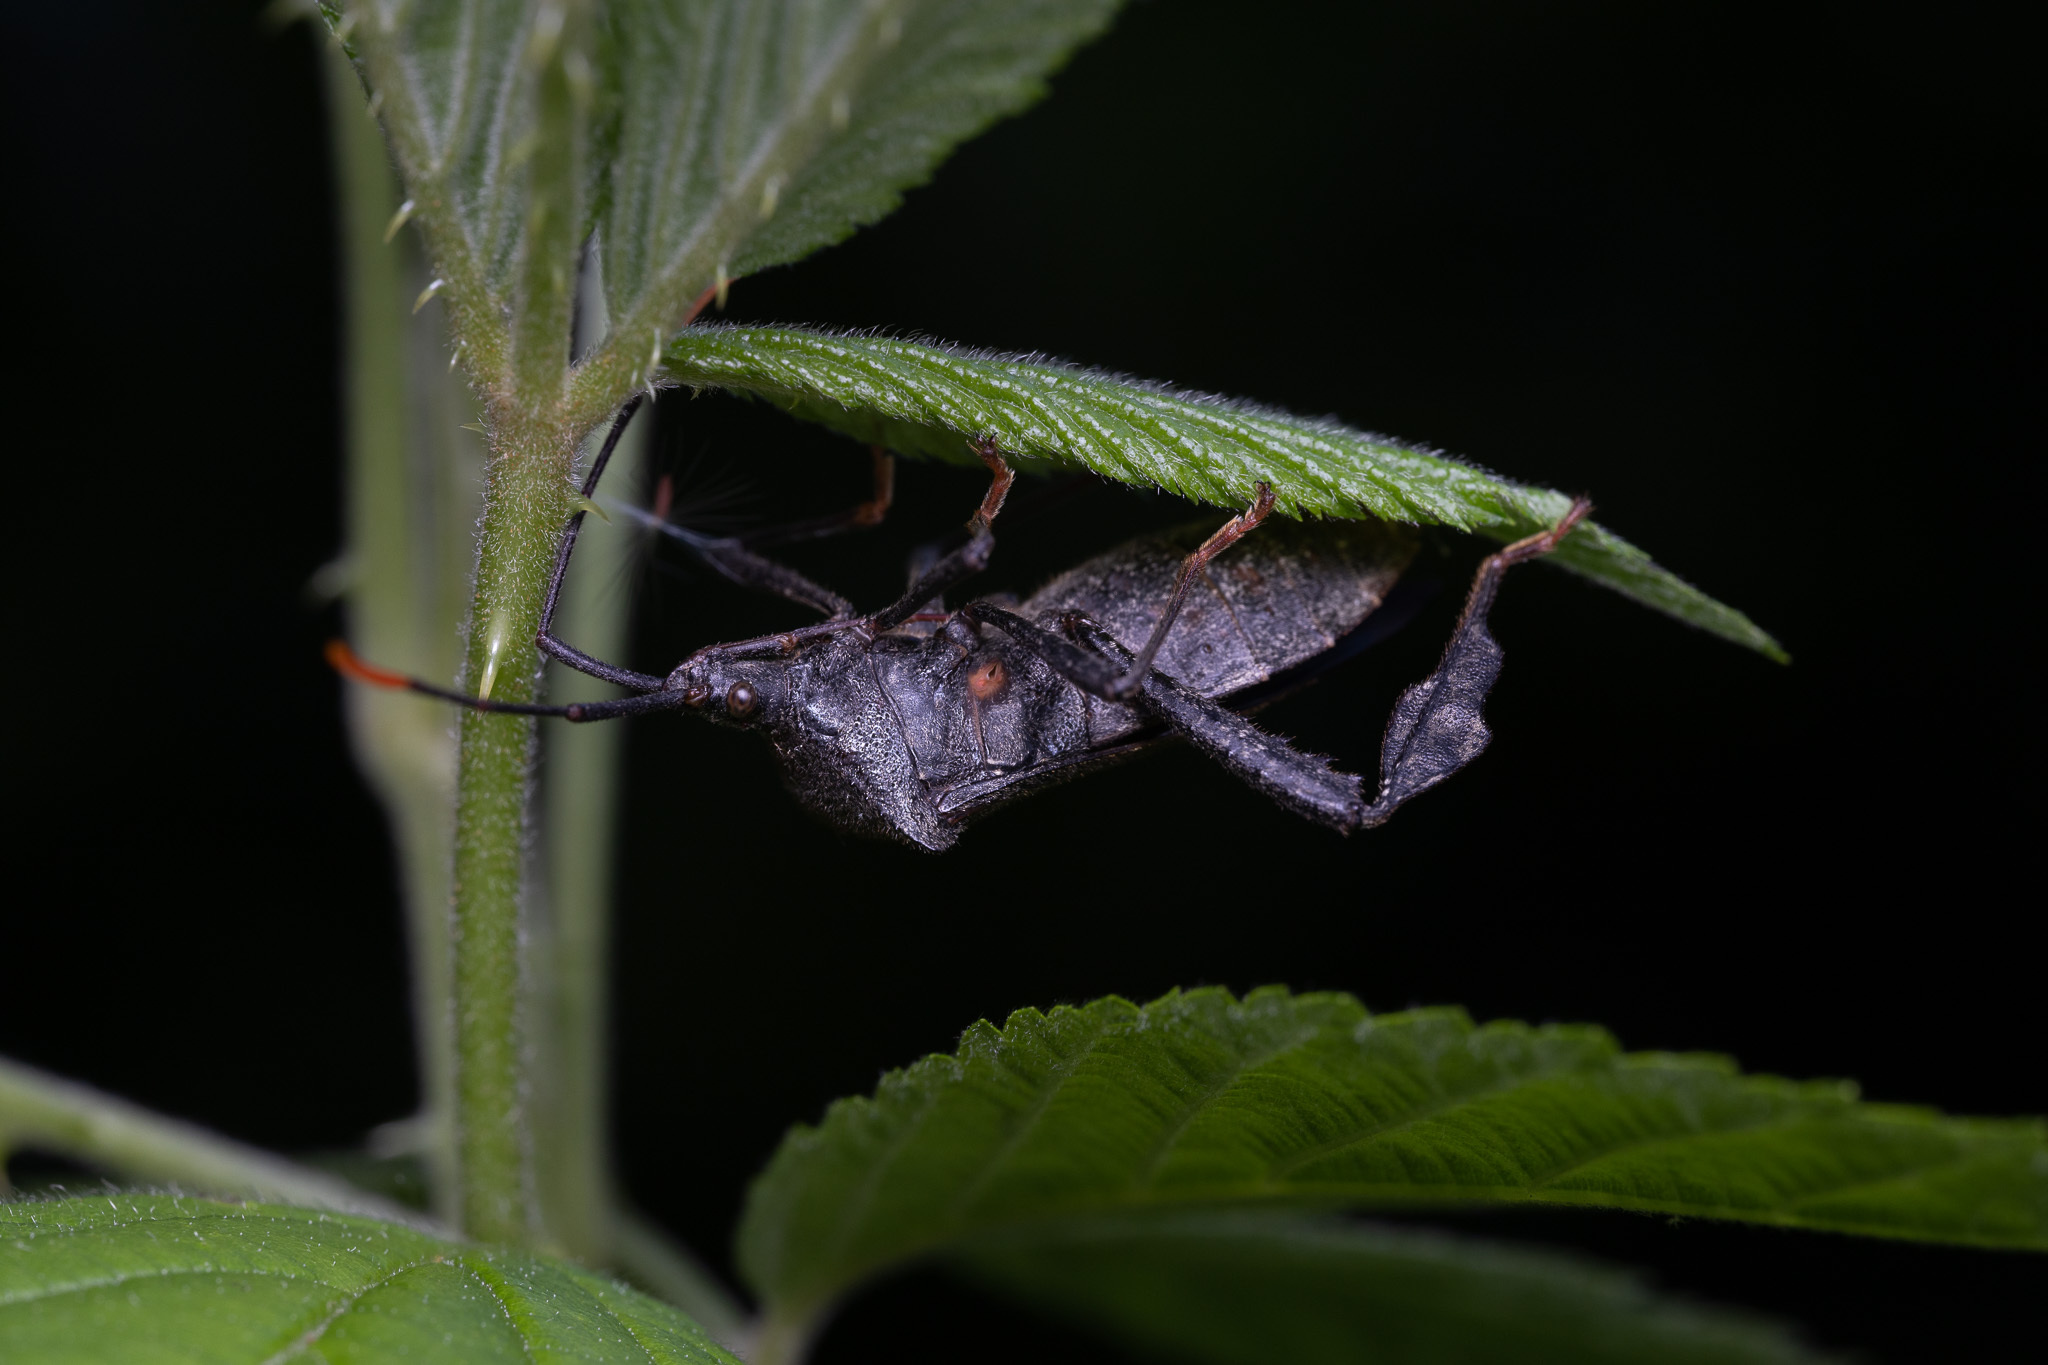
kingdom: Animalia
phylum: Arthropoda
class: Insecta
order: Hemiptera
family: Coreidae
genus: Acanthocephala
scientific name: Acanthocephala terminalis
